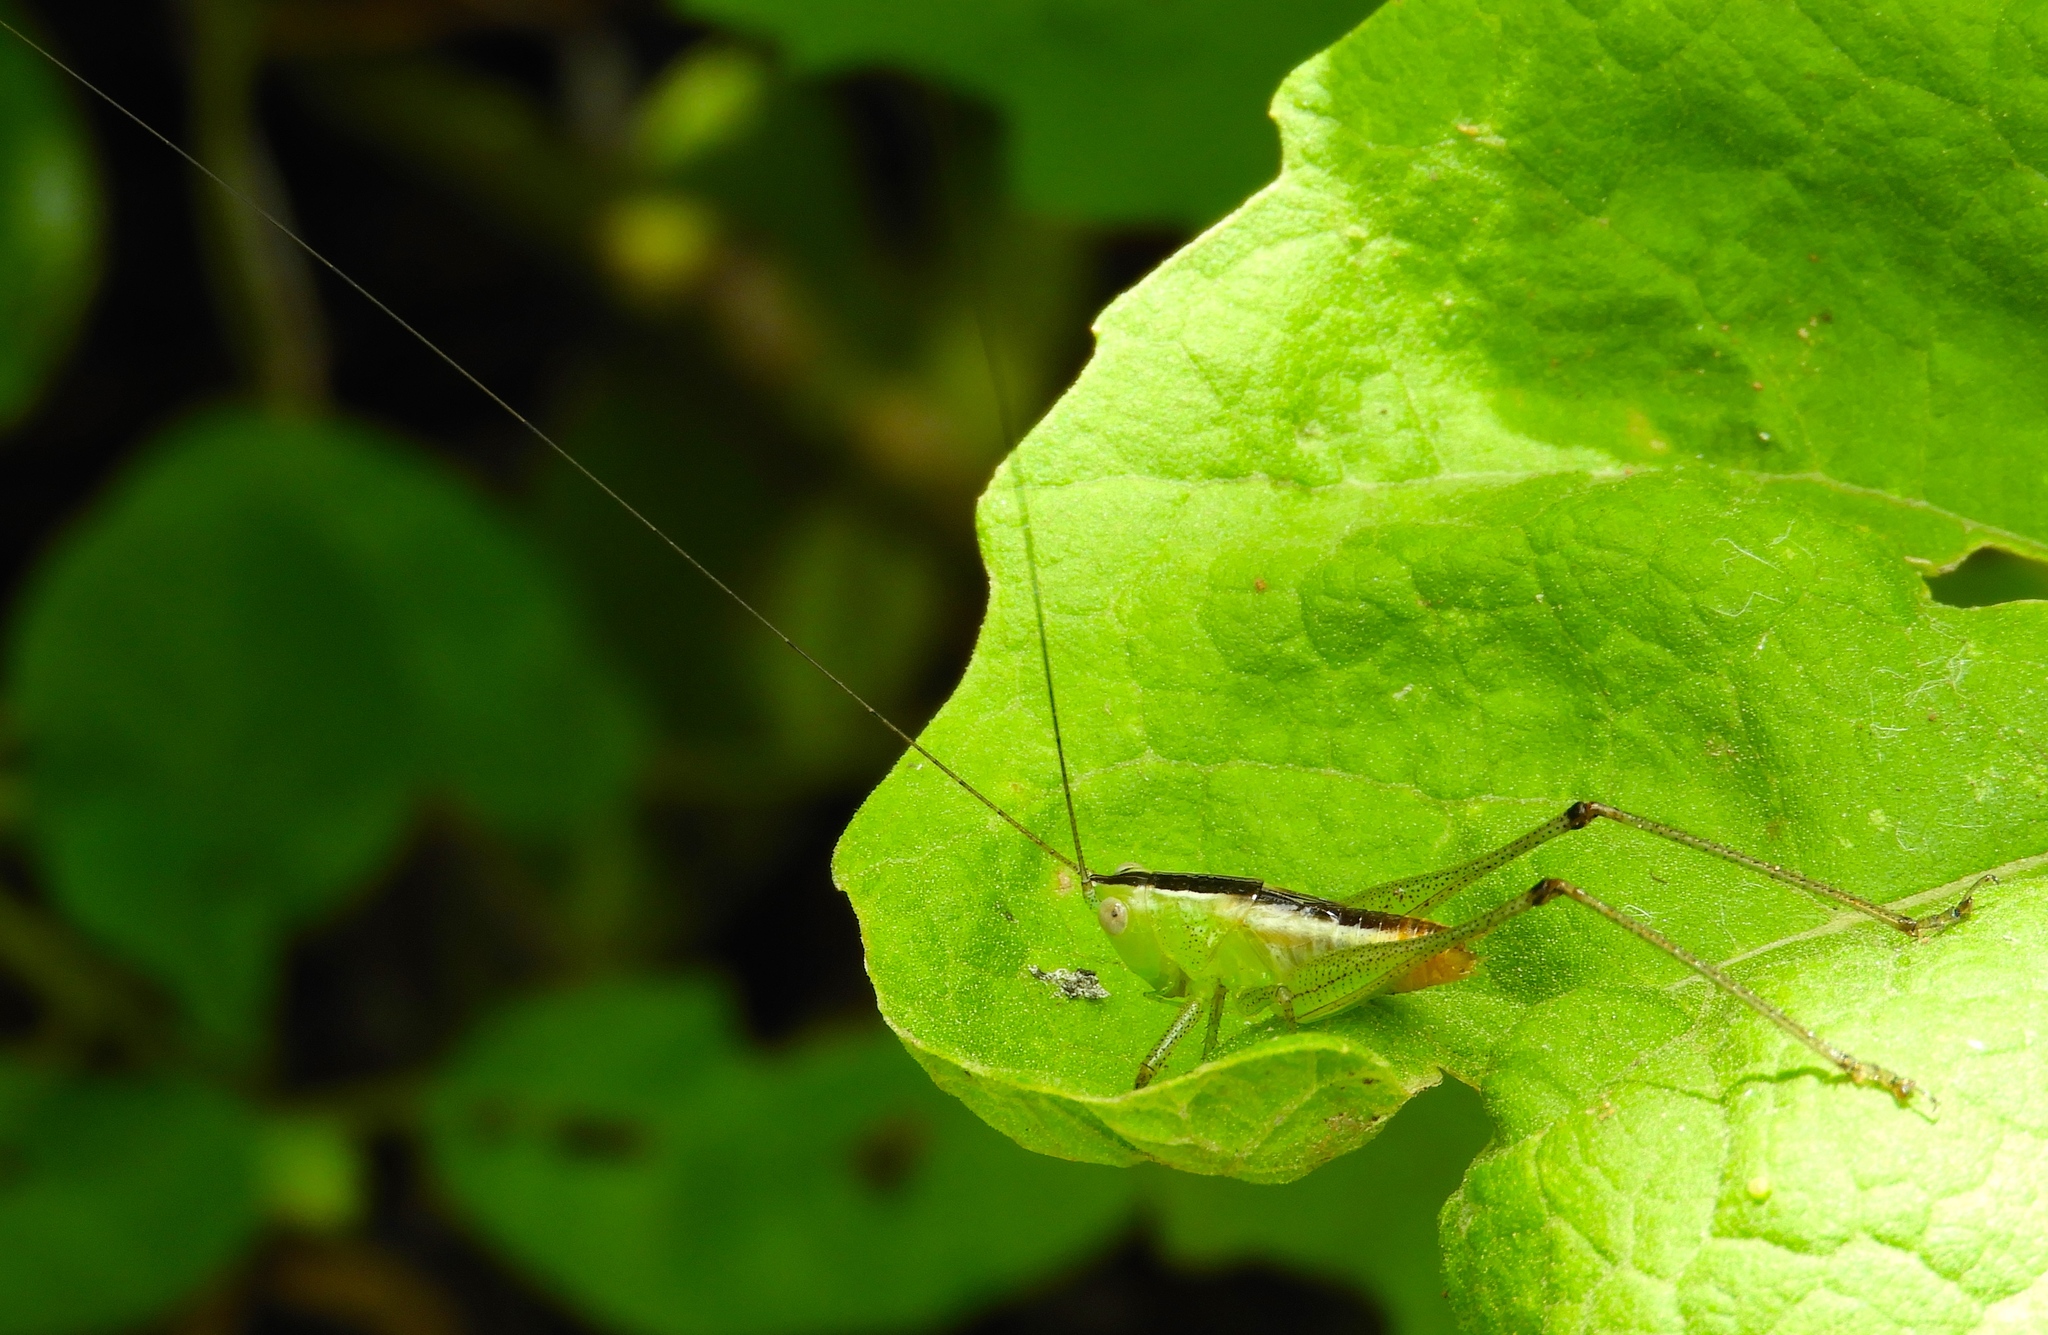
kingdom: Animalia
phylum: Arthropoda
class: Insecta
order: Orthoptera
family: Tettigoniidae
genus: Conocephalus
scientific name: Conocephalus
